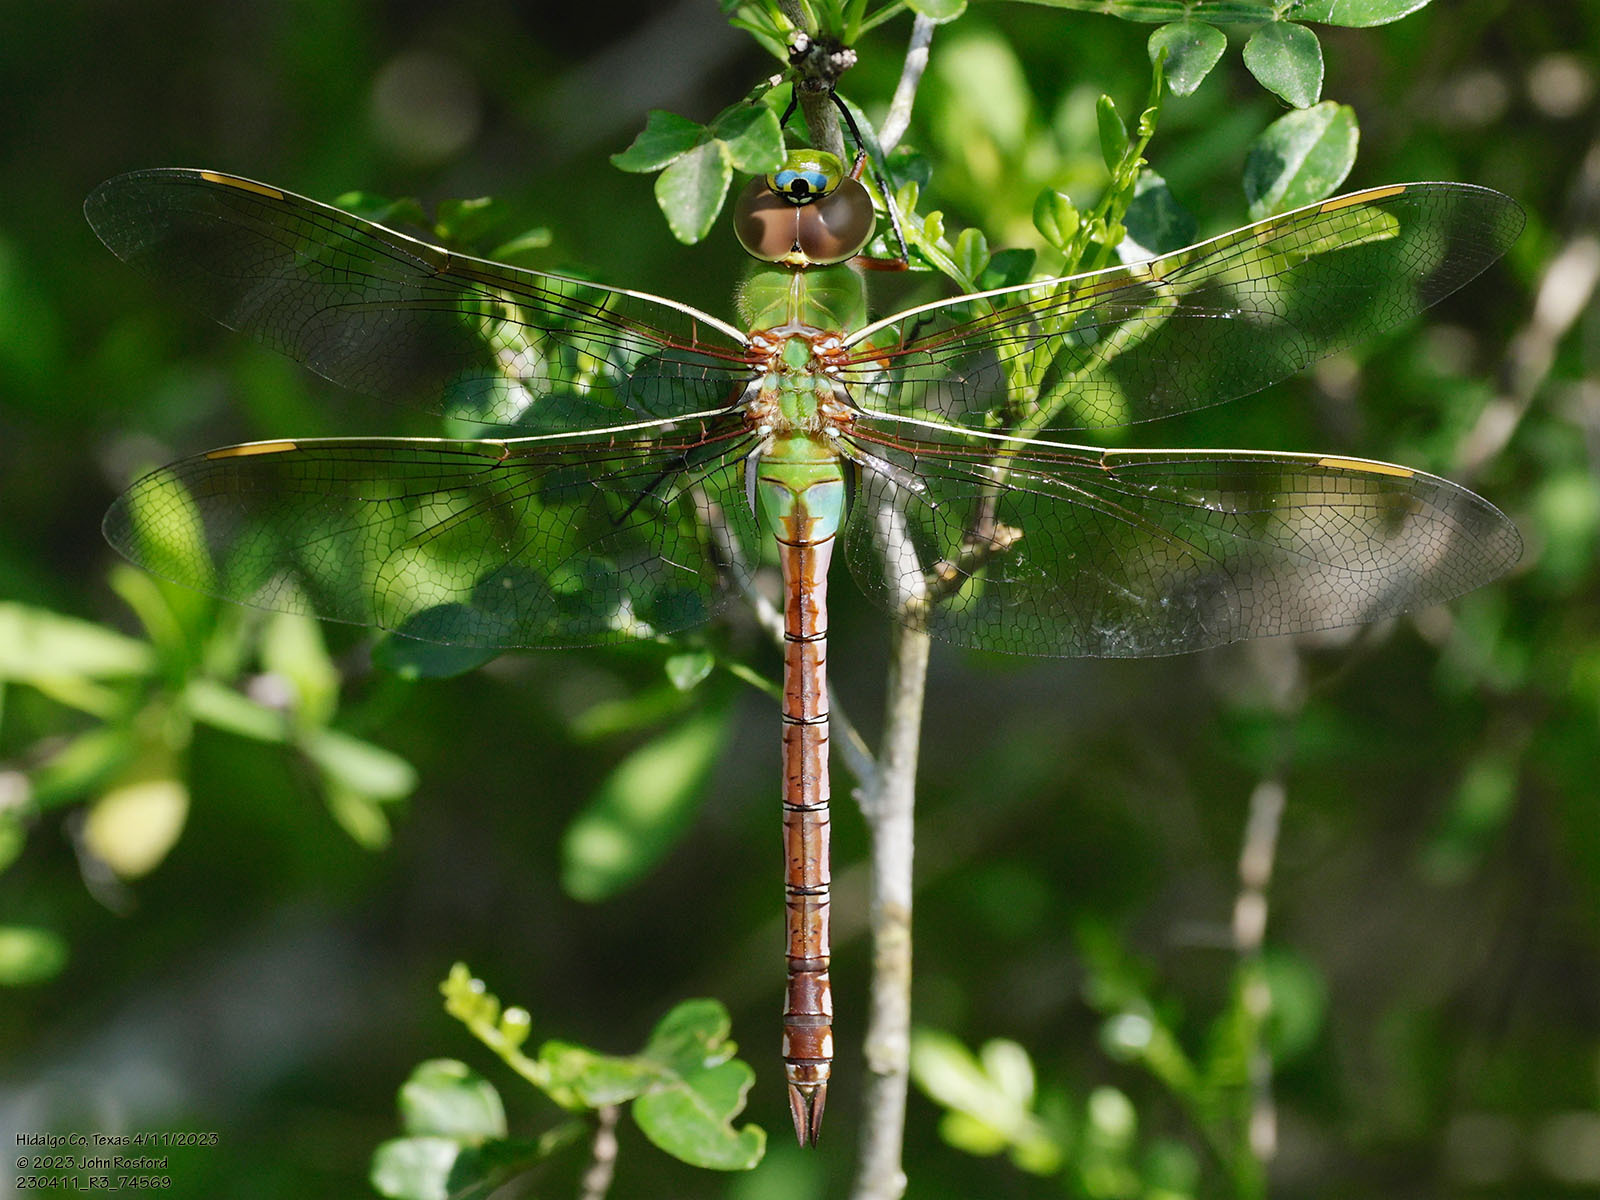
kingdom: Animalia
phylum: Arthropoda
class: Insecta
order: Odonata
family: Aeshnidae
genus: Anax
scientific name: Anax junius
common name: Common green darner
